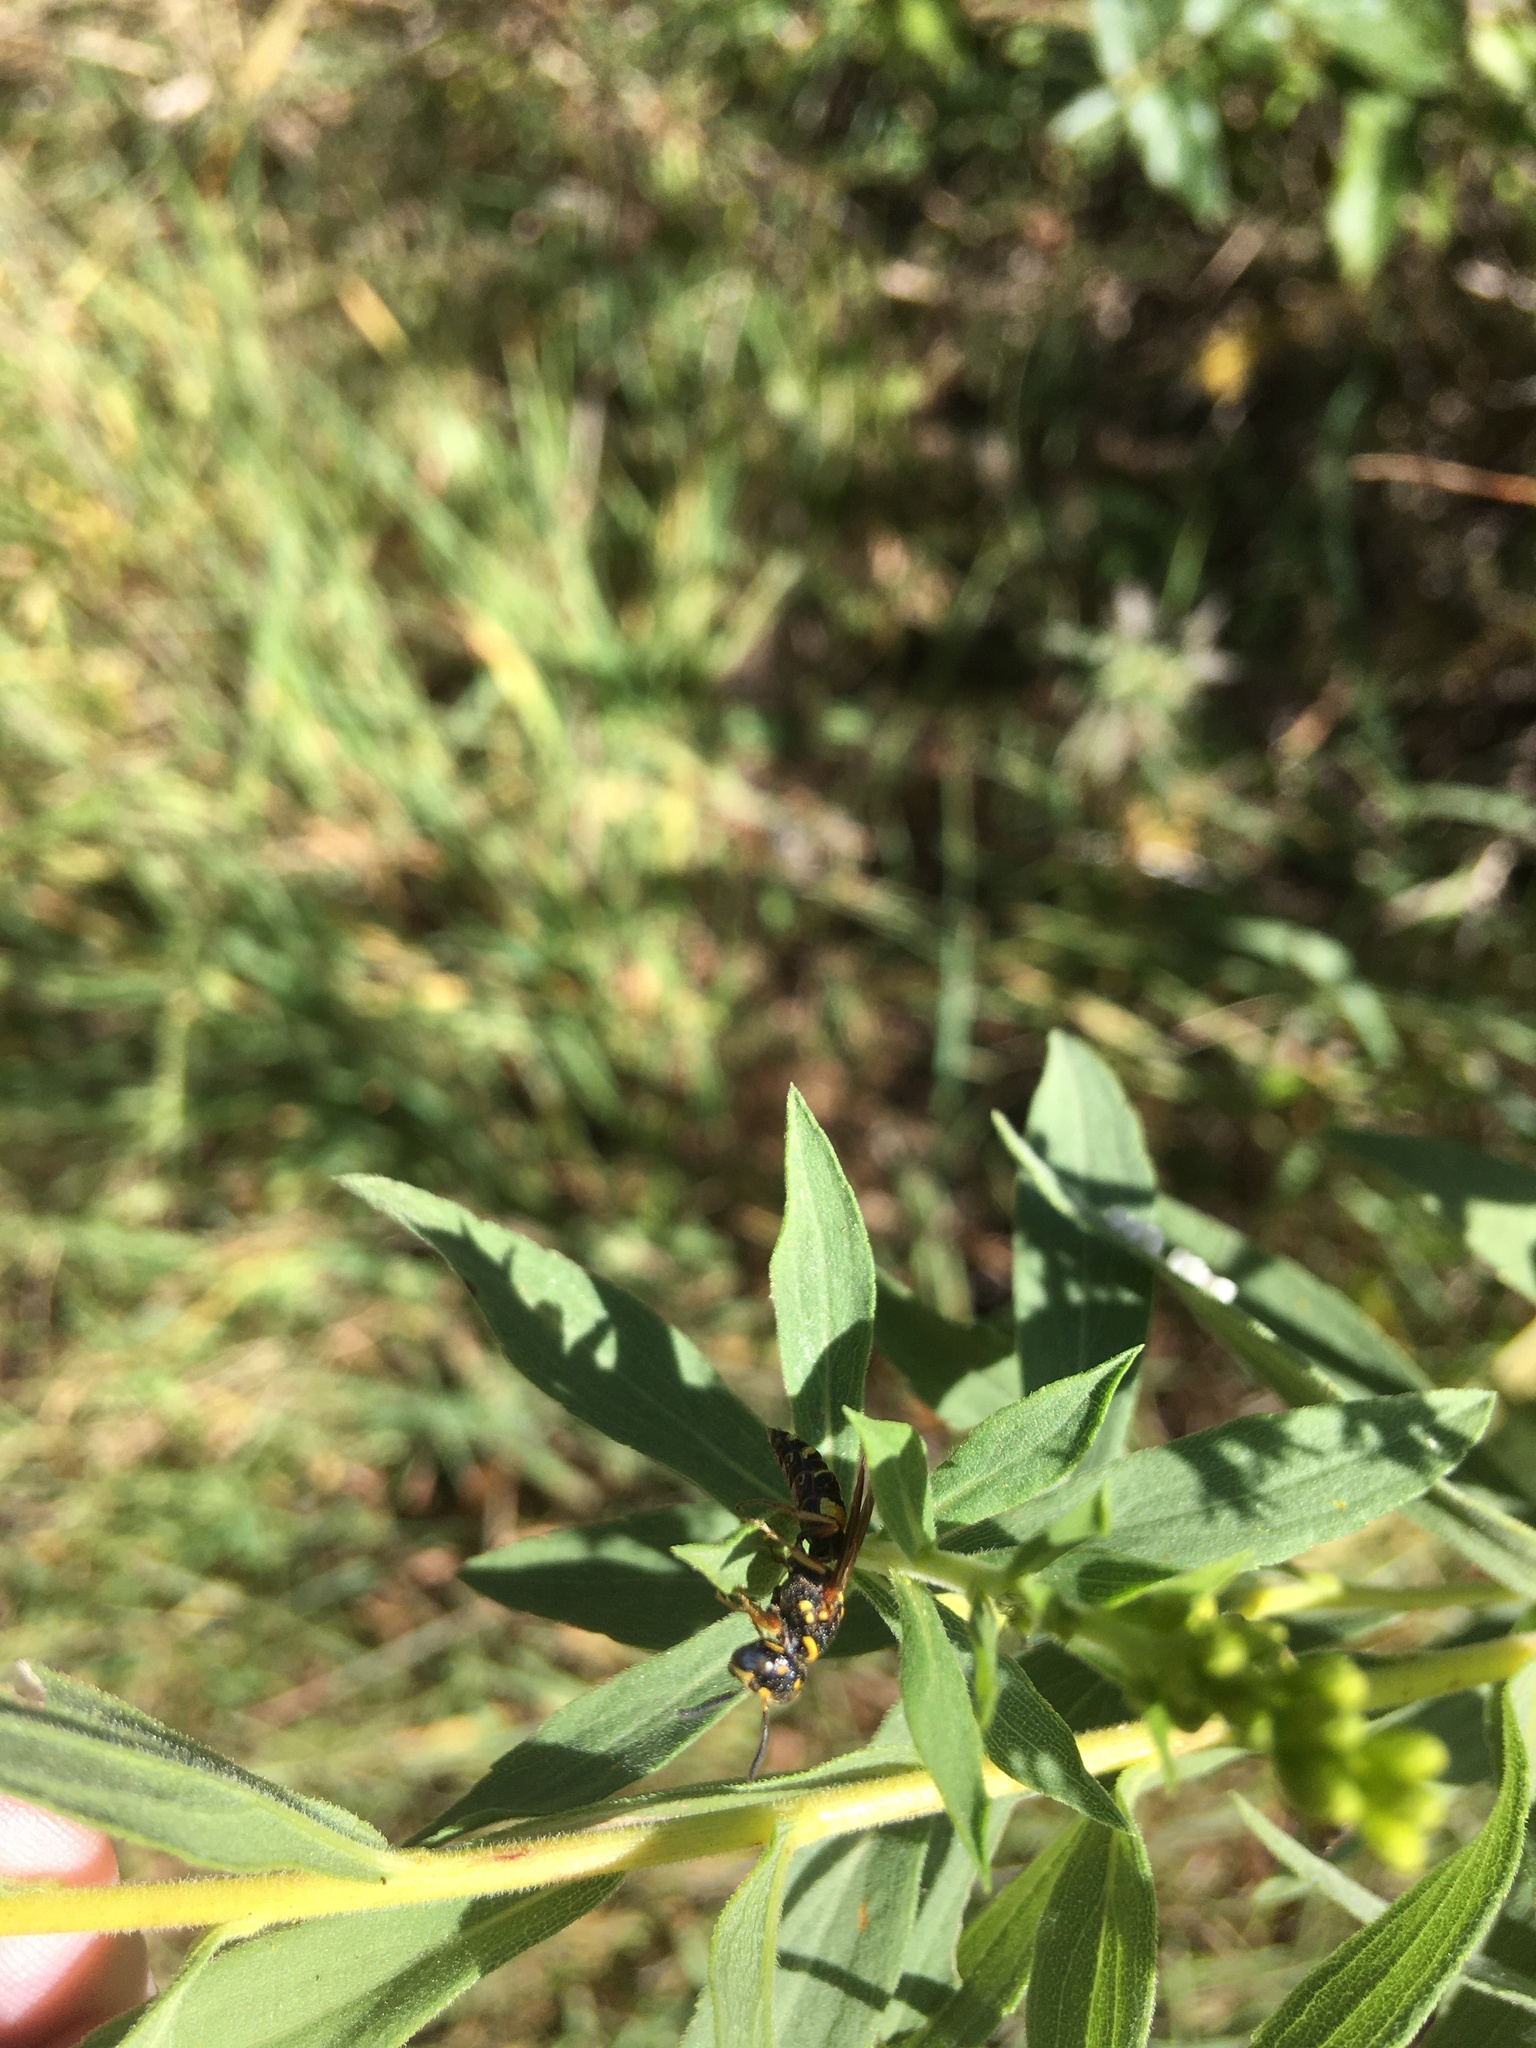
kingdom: Animalia
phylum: Arthropoda
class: Insecta
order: Hymenoptera
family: Crabronidae
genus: Philanthus
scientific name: Philanthus gibbosus
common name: Humped beewolf
